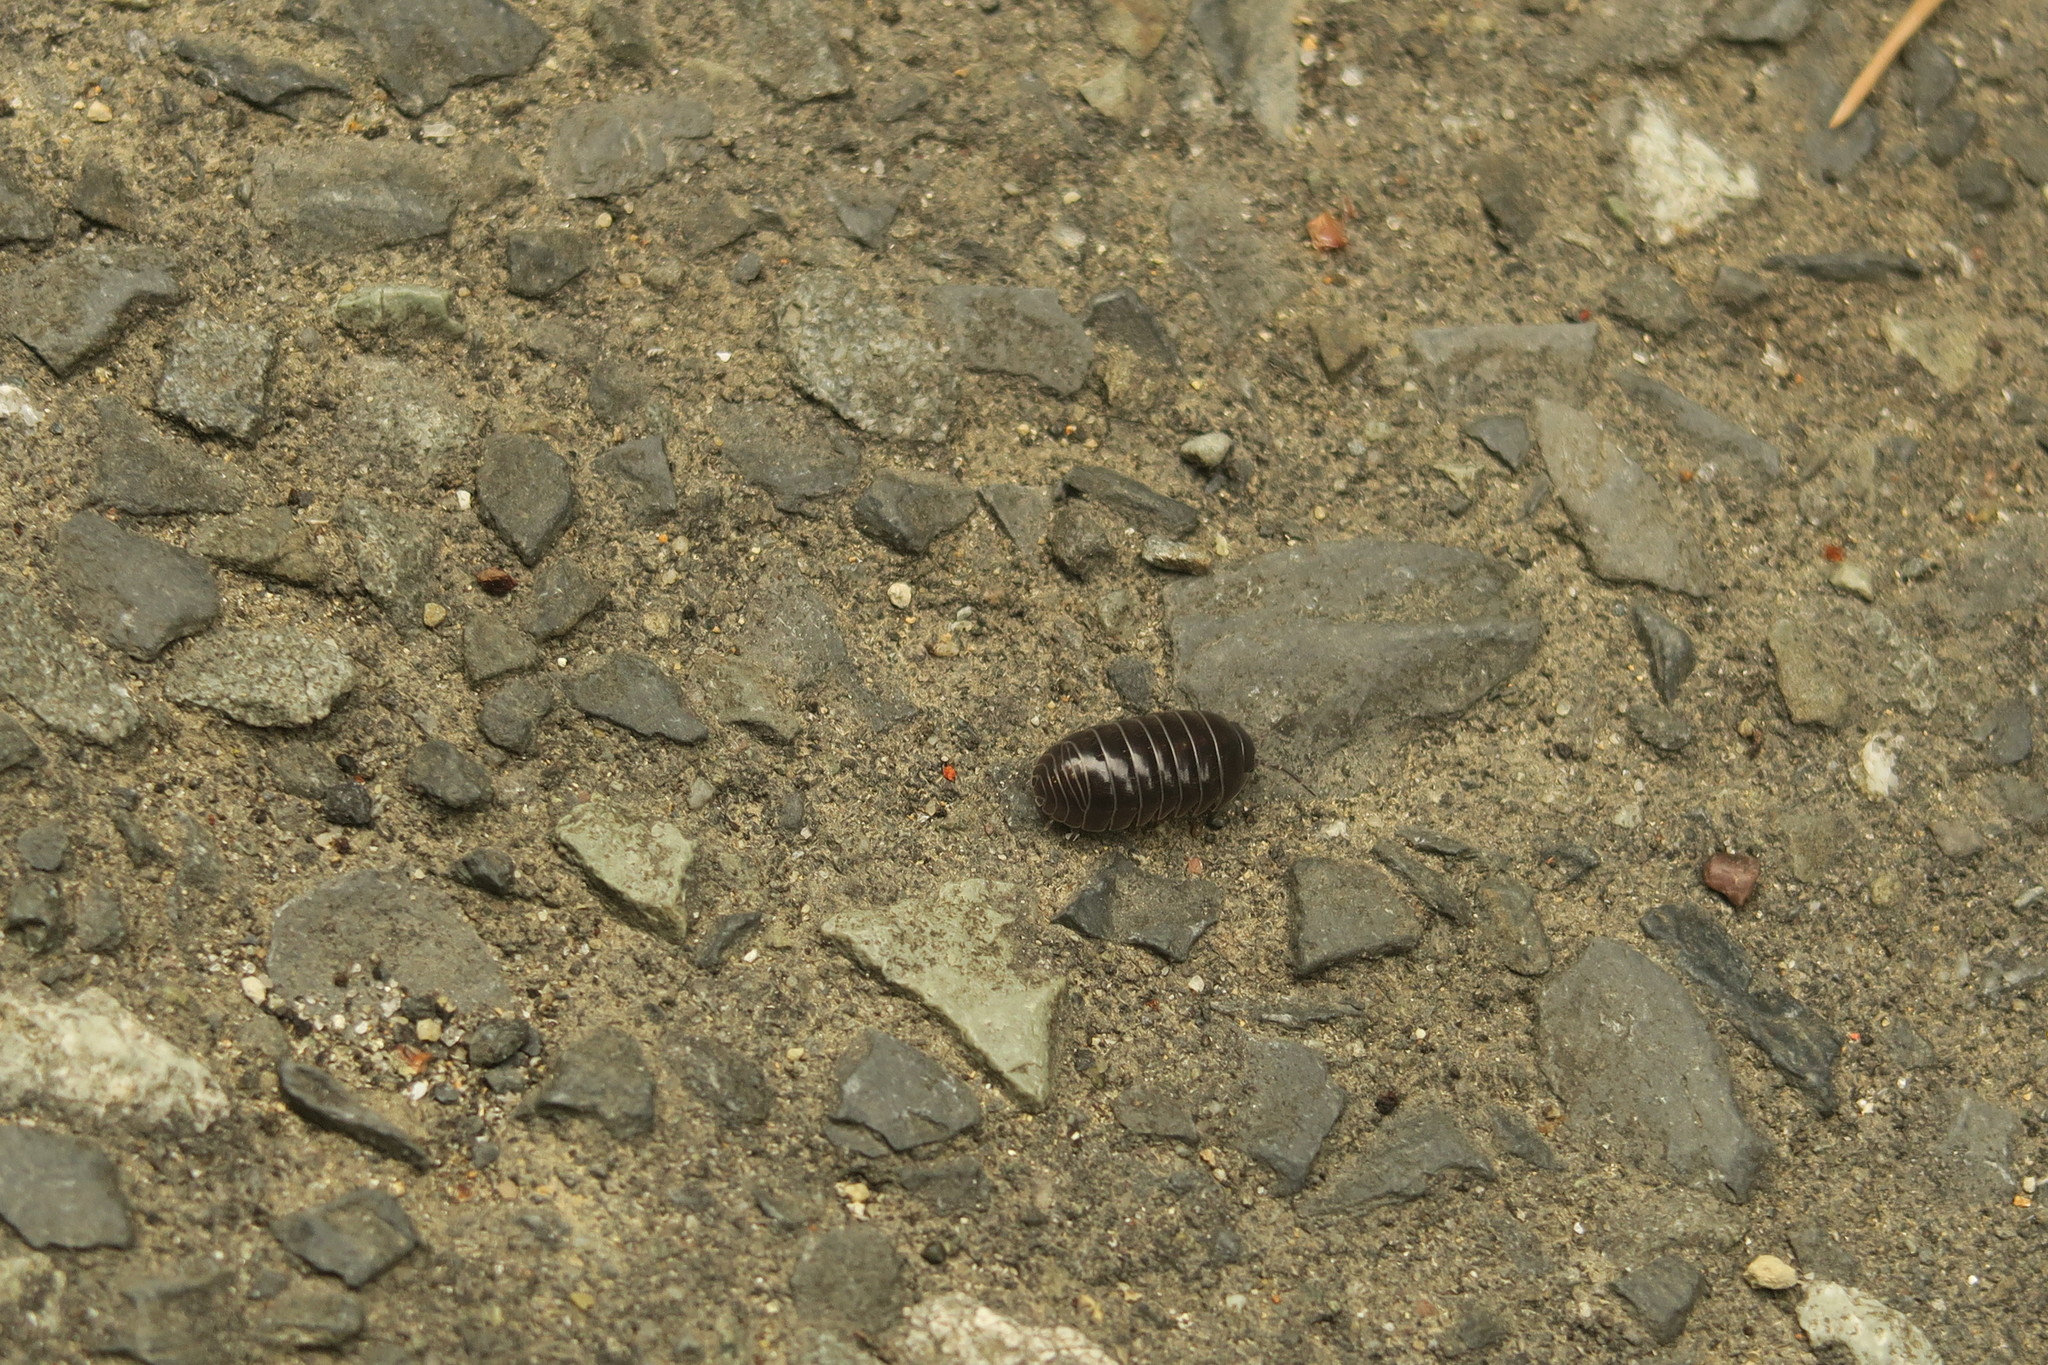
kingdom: Animalia
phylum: Arthropoda
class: Malacostraca
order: Isopoda
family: Armadillidiidae
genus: Armadillidium
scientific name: Armadillidium vulgare
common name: Common pill woodlouse
